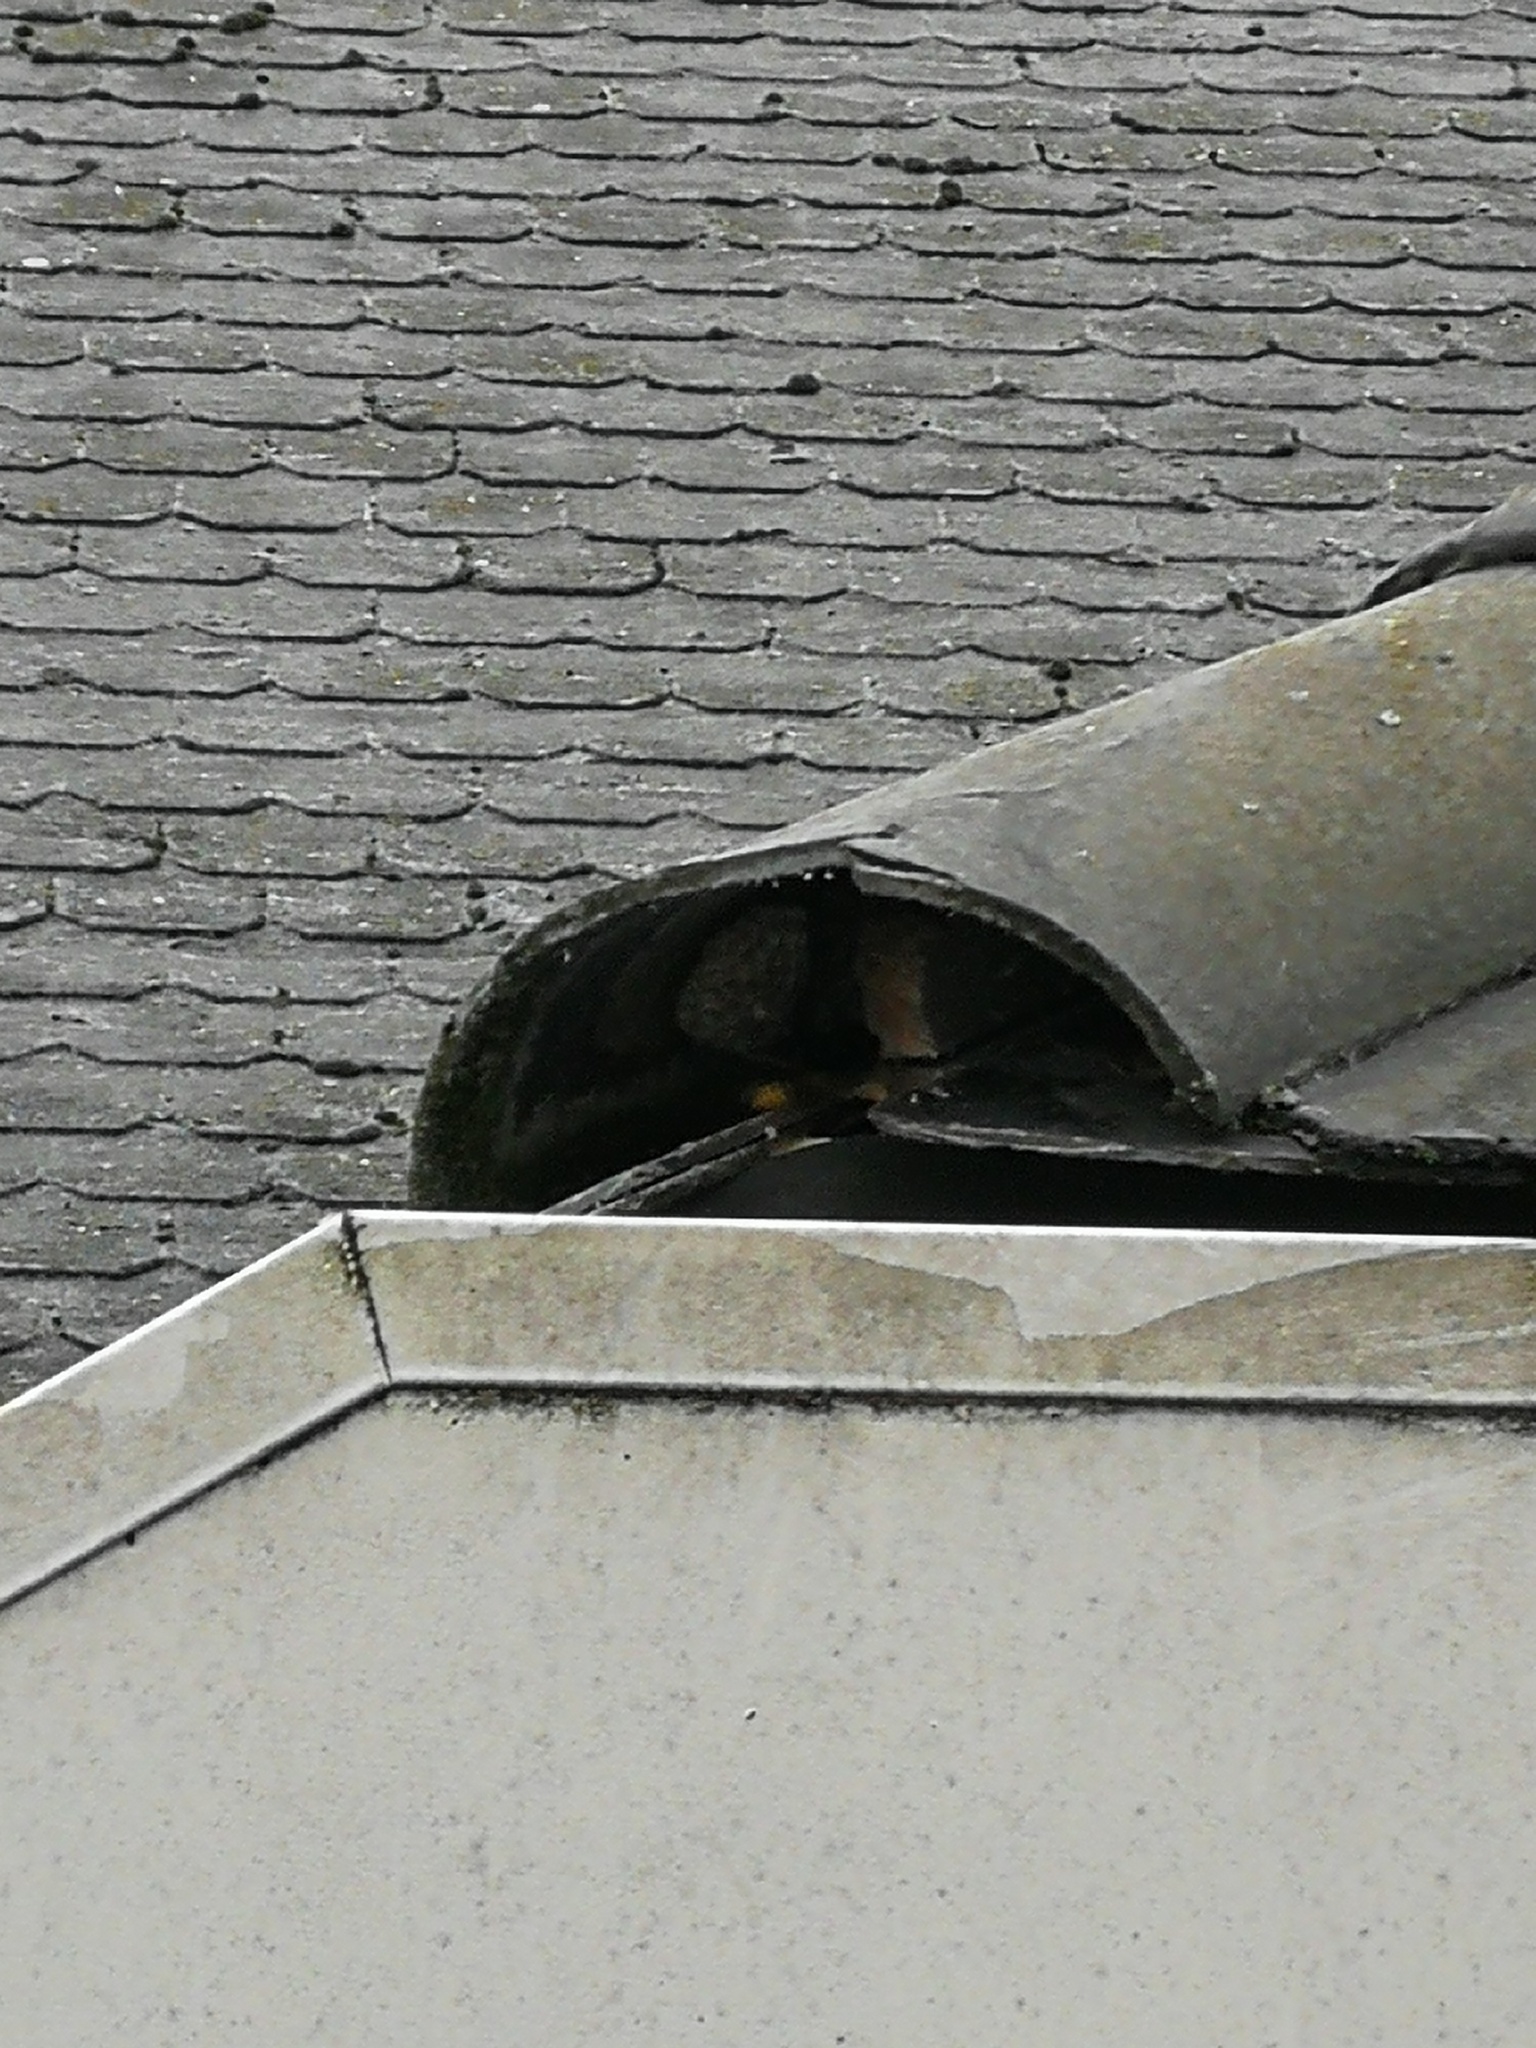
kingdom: Animalia
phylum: Arthropoda
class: Insecta
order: Hymenoptera
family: Vespidae
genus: Vespa
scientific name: Vespa crabro
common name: Hornet
